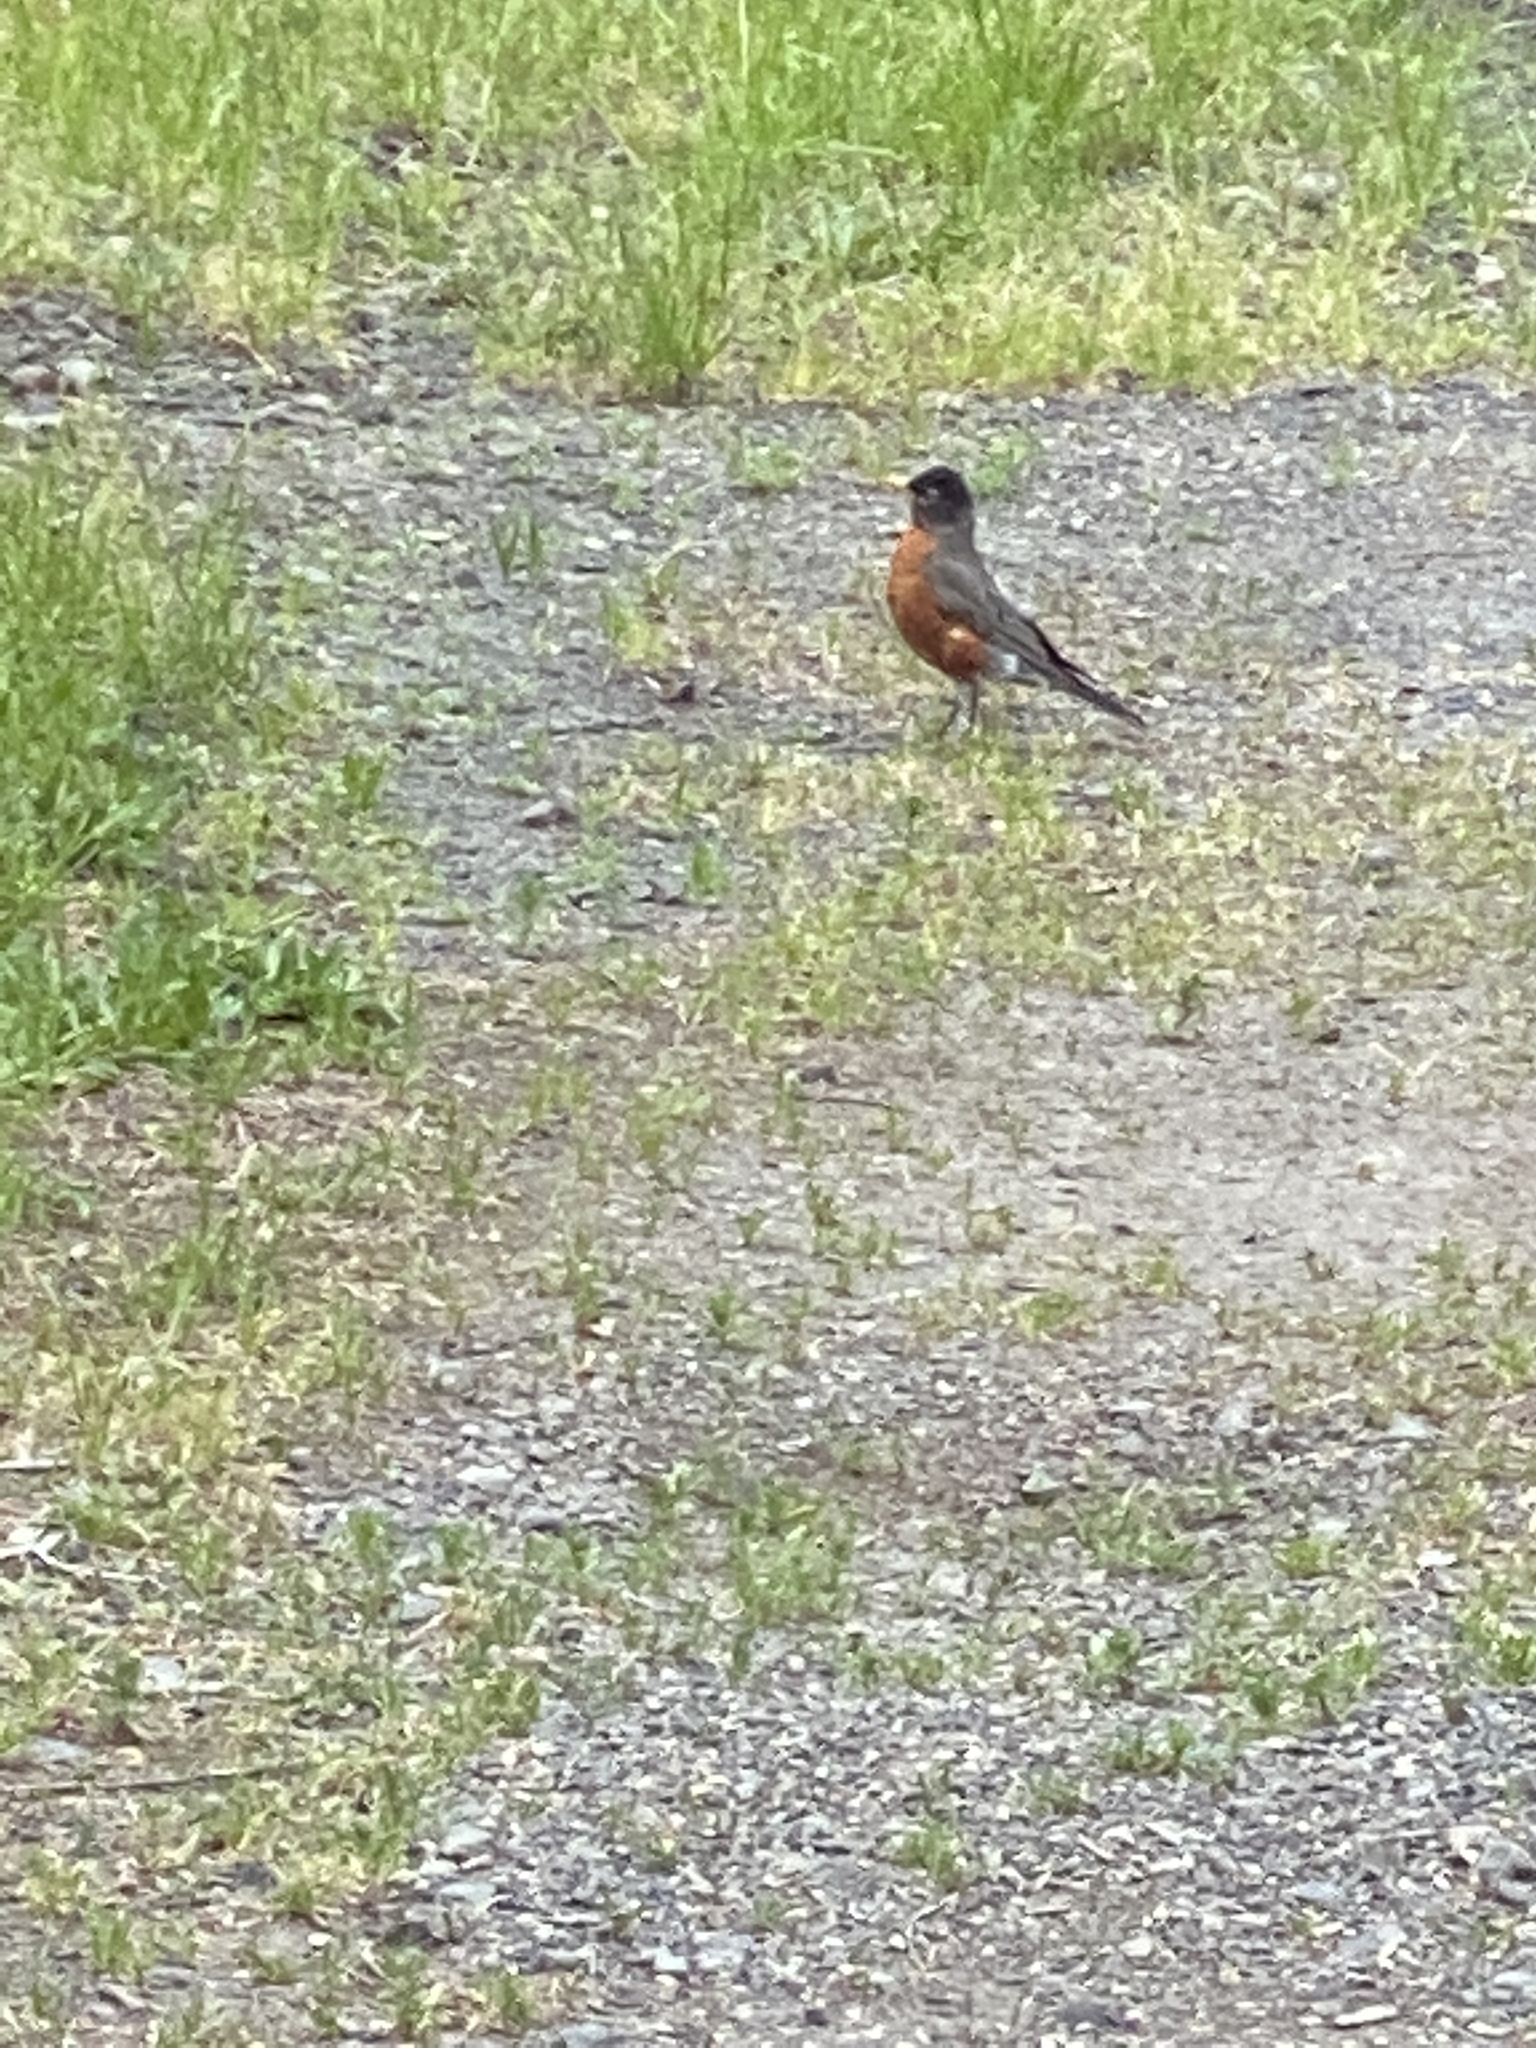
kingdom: Animalia
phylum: Chordata
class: Aves
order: Passeriformes
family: Turdidae
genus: Turdus
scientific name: Turdus migratorius
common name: American robin
